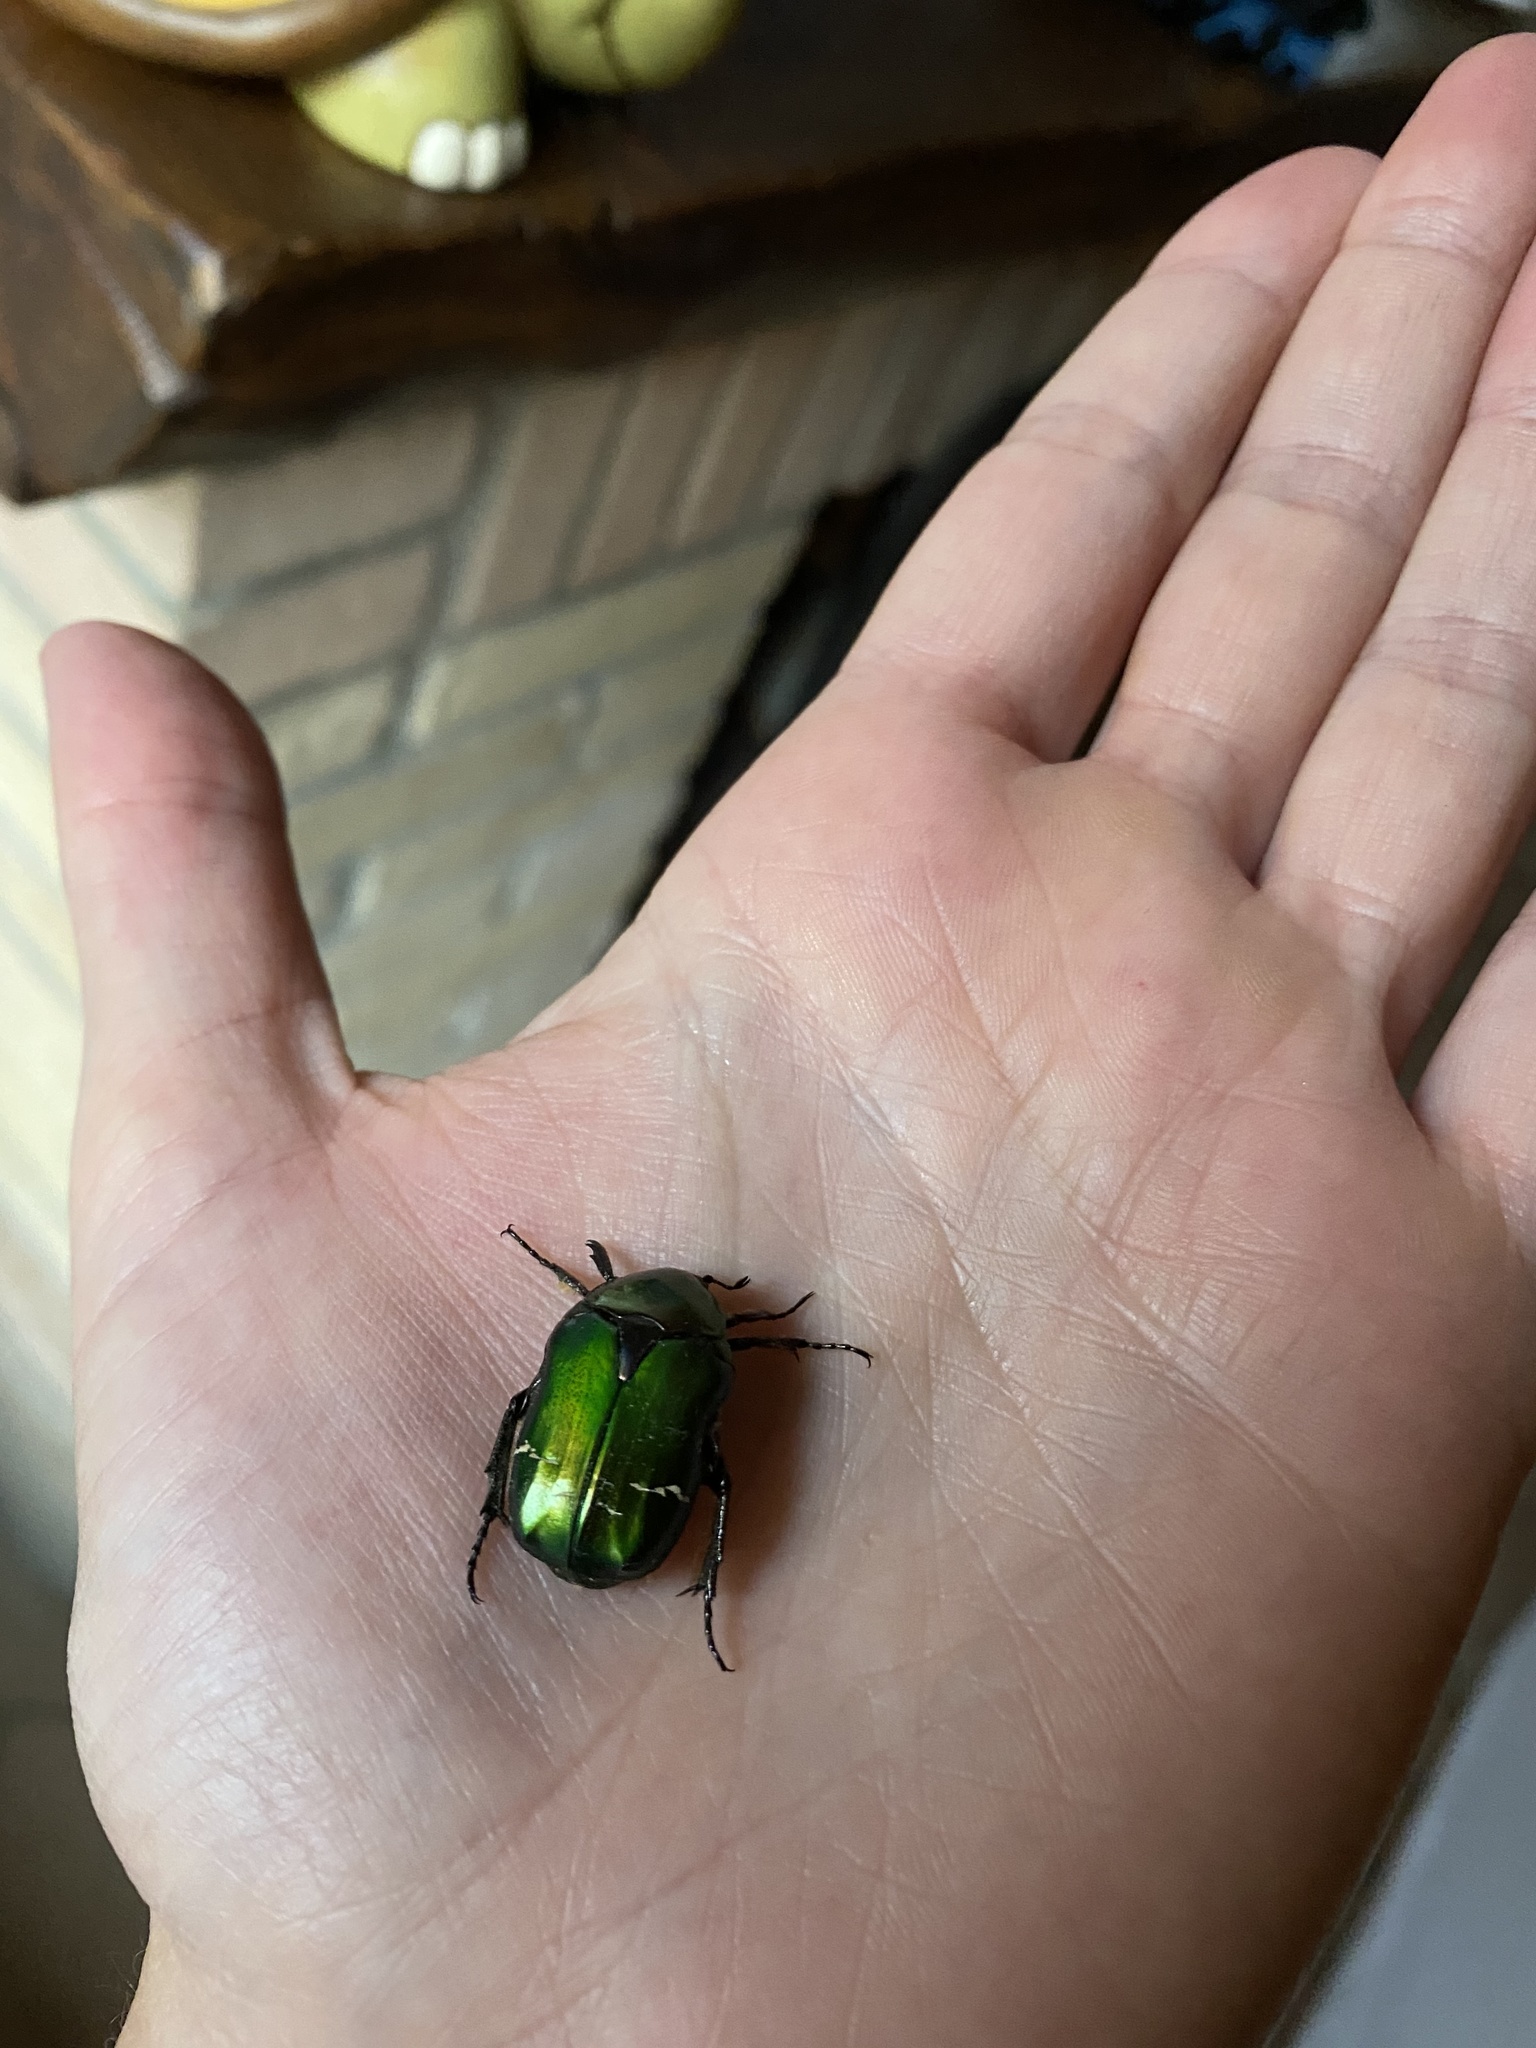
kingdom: Animalia
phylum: Arthropoda
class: Insecta
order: Coleoptera
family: Scarabaeidae
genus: Cetonia
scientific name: Cetonia aurata
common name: Rose chafer
